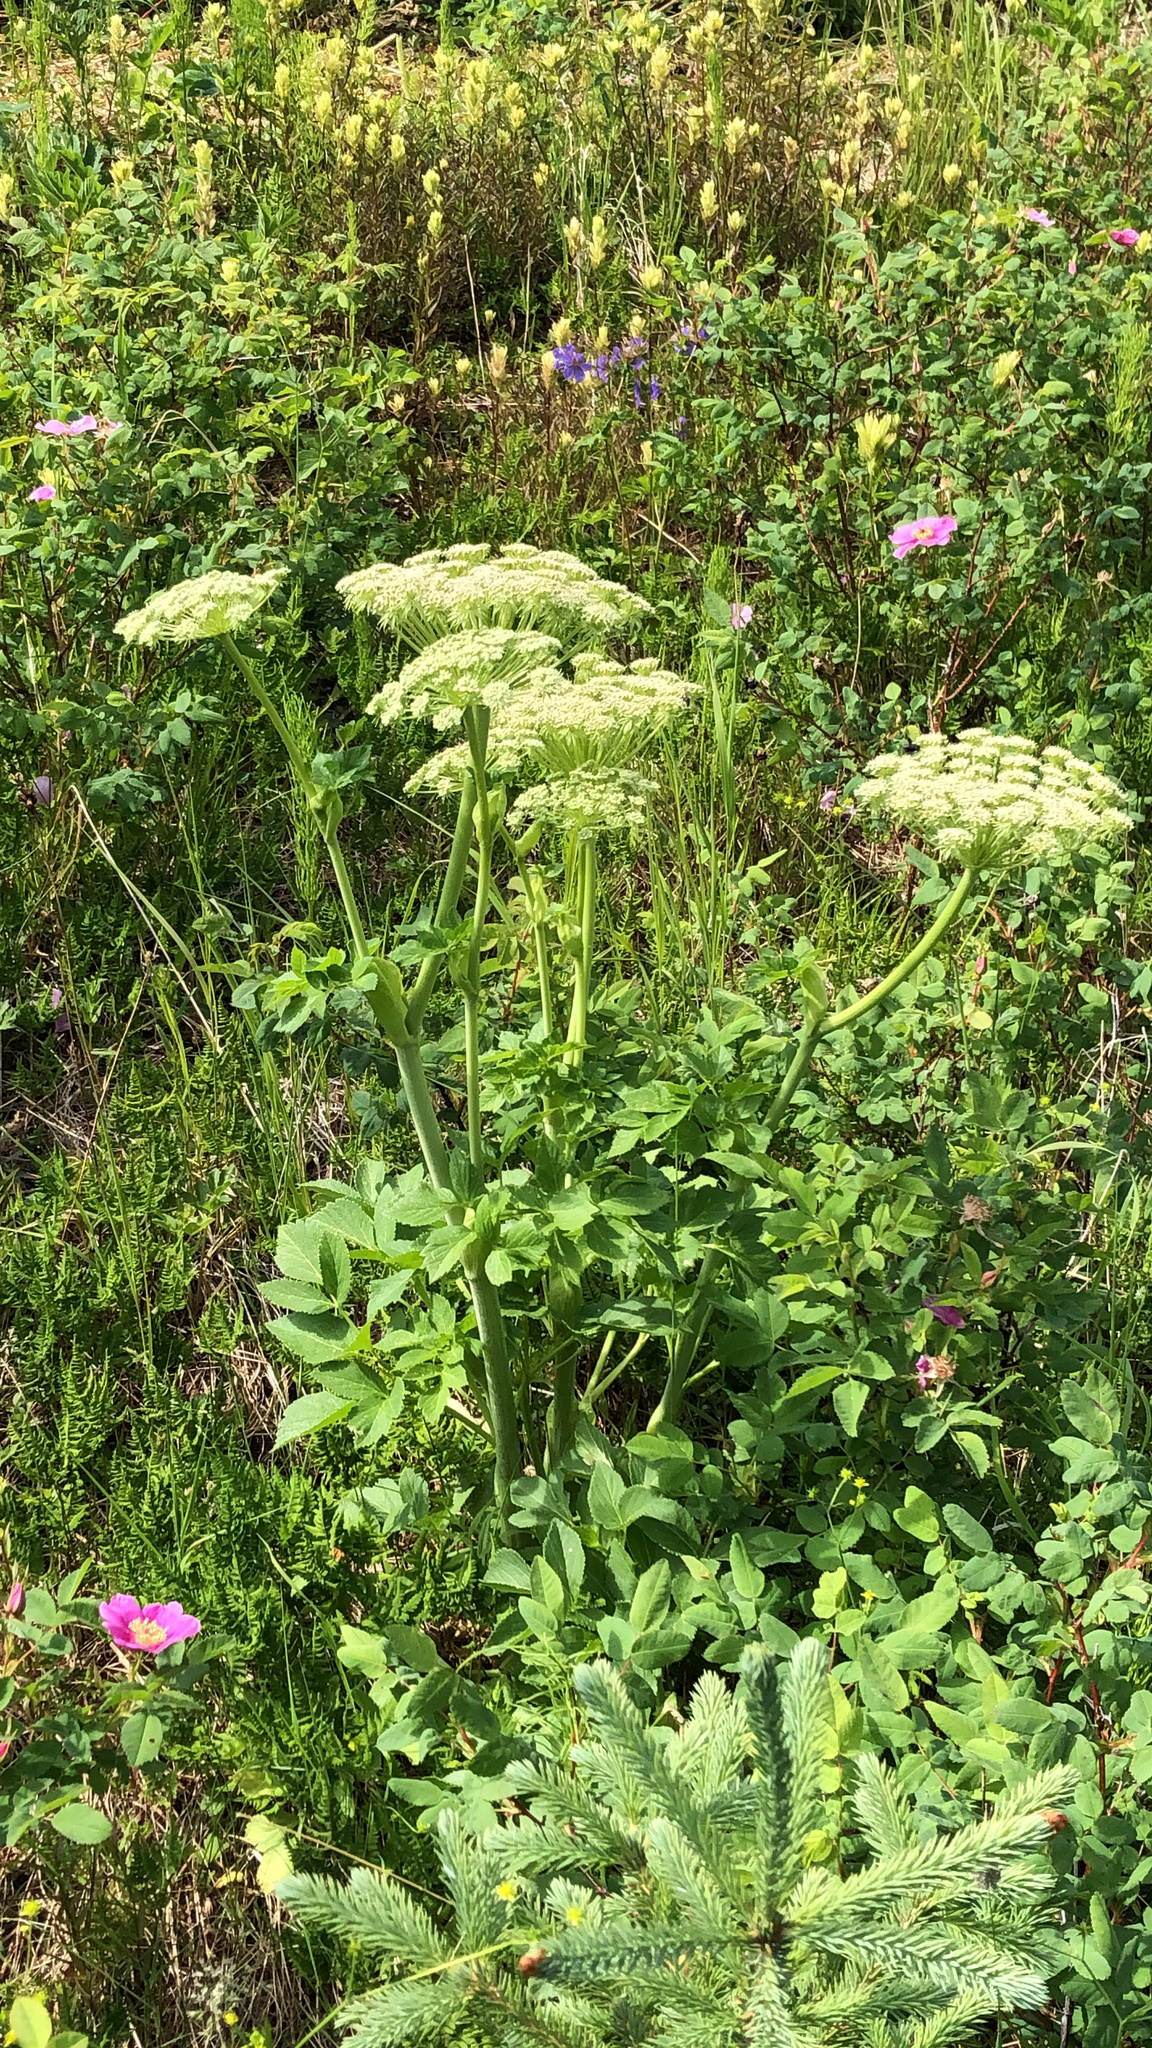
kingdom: Plantae
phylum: Tracheophyta
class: Magnoliopsida
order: Apiales
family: Apiaceae
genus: Angelica
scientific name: Angelica lucida
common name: Seabeach angelica
